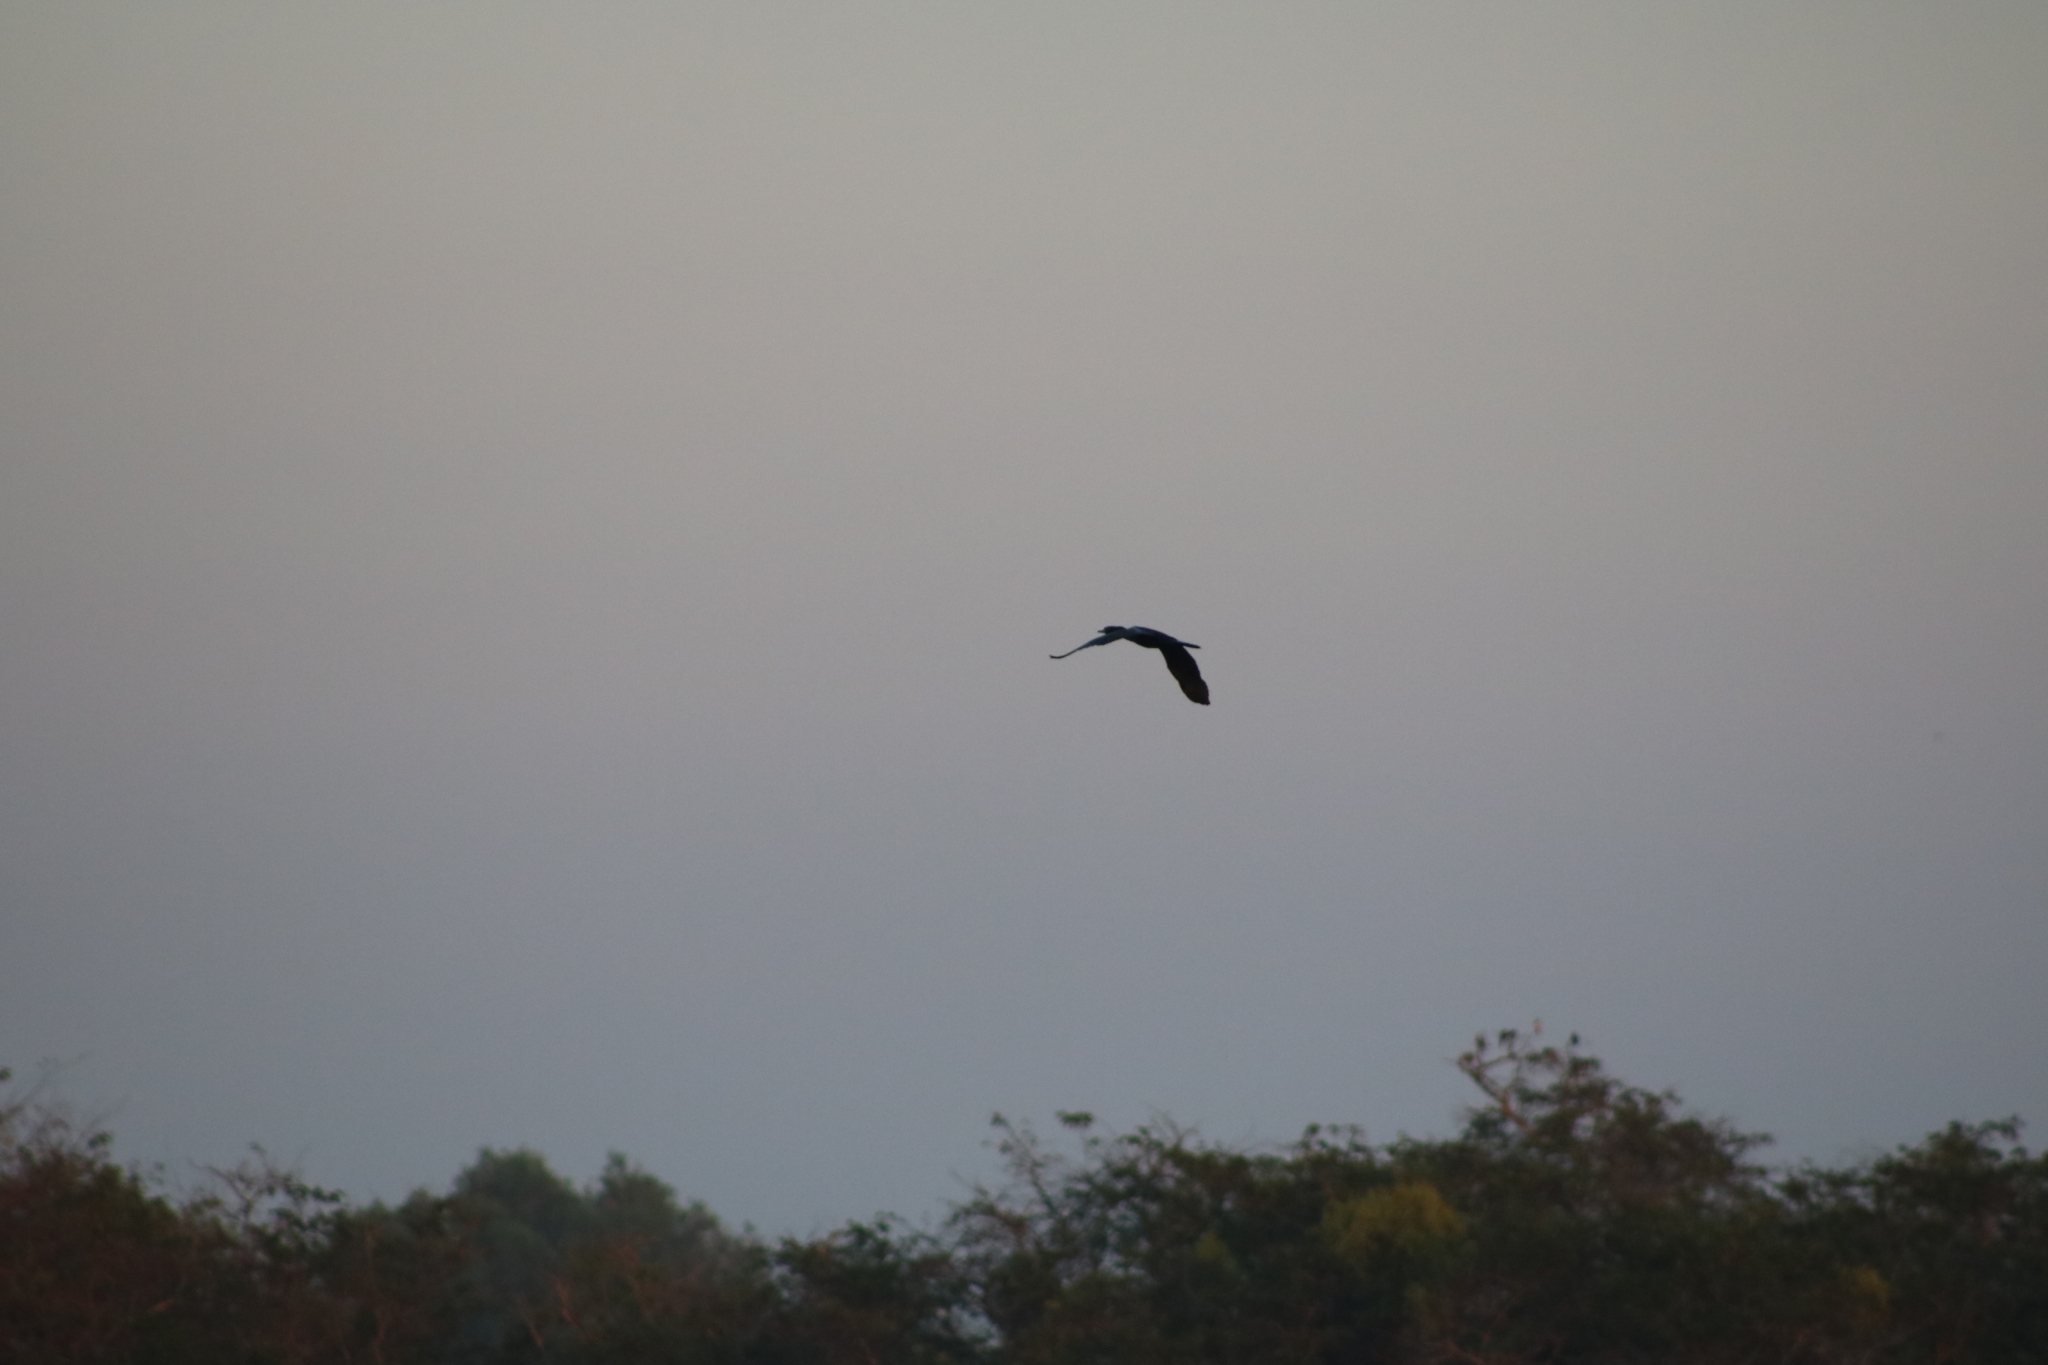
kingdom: Animalia
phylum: Chordata
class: Aves
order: Suliformes
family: Phalacrocoracidae
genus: Phalacrocorax
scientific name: Phalacrocorax sulcirostris
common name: Little black cormorant
